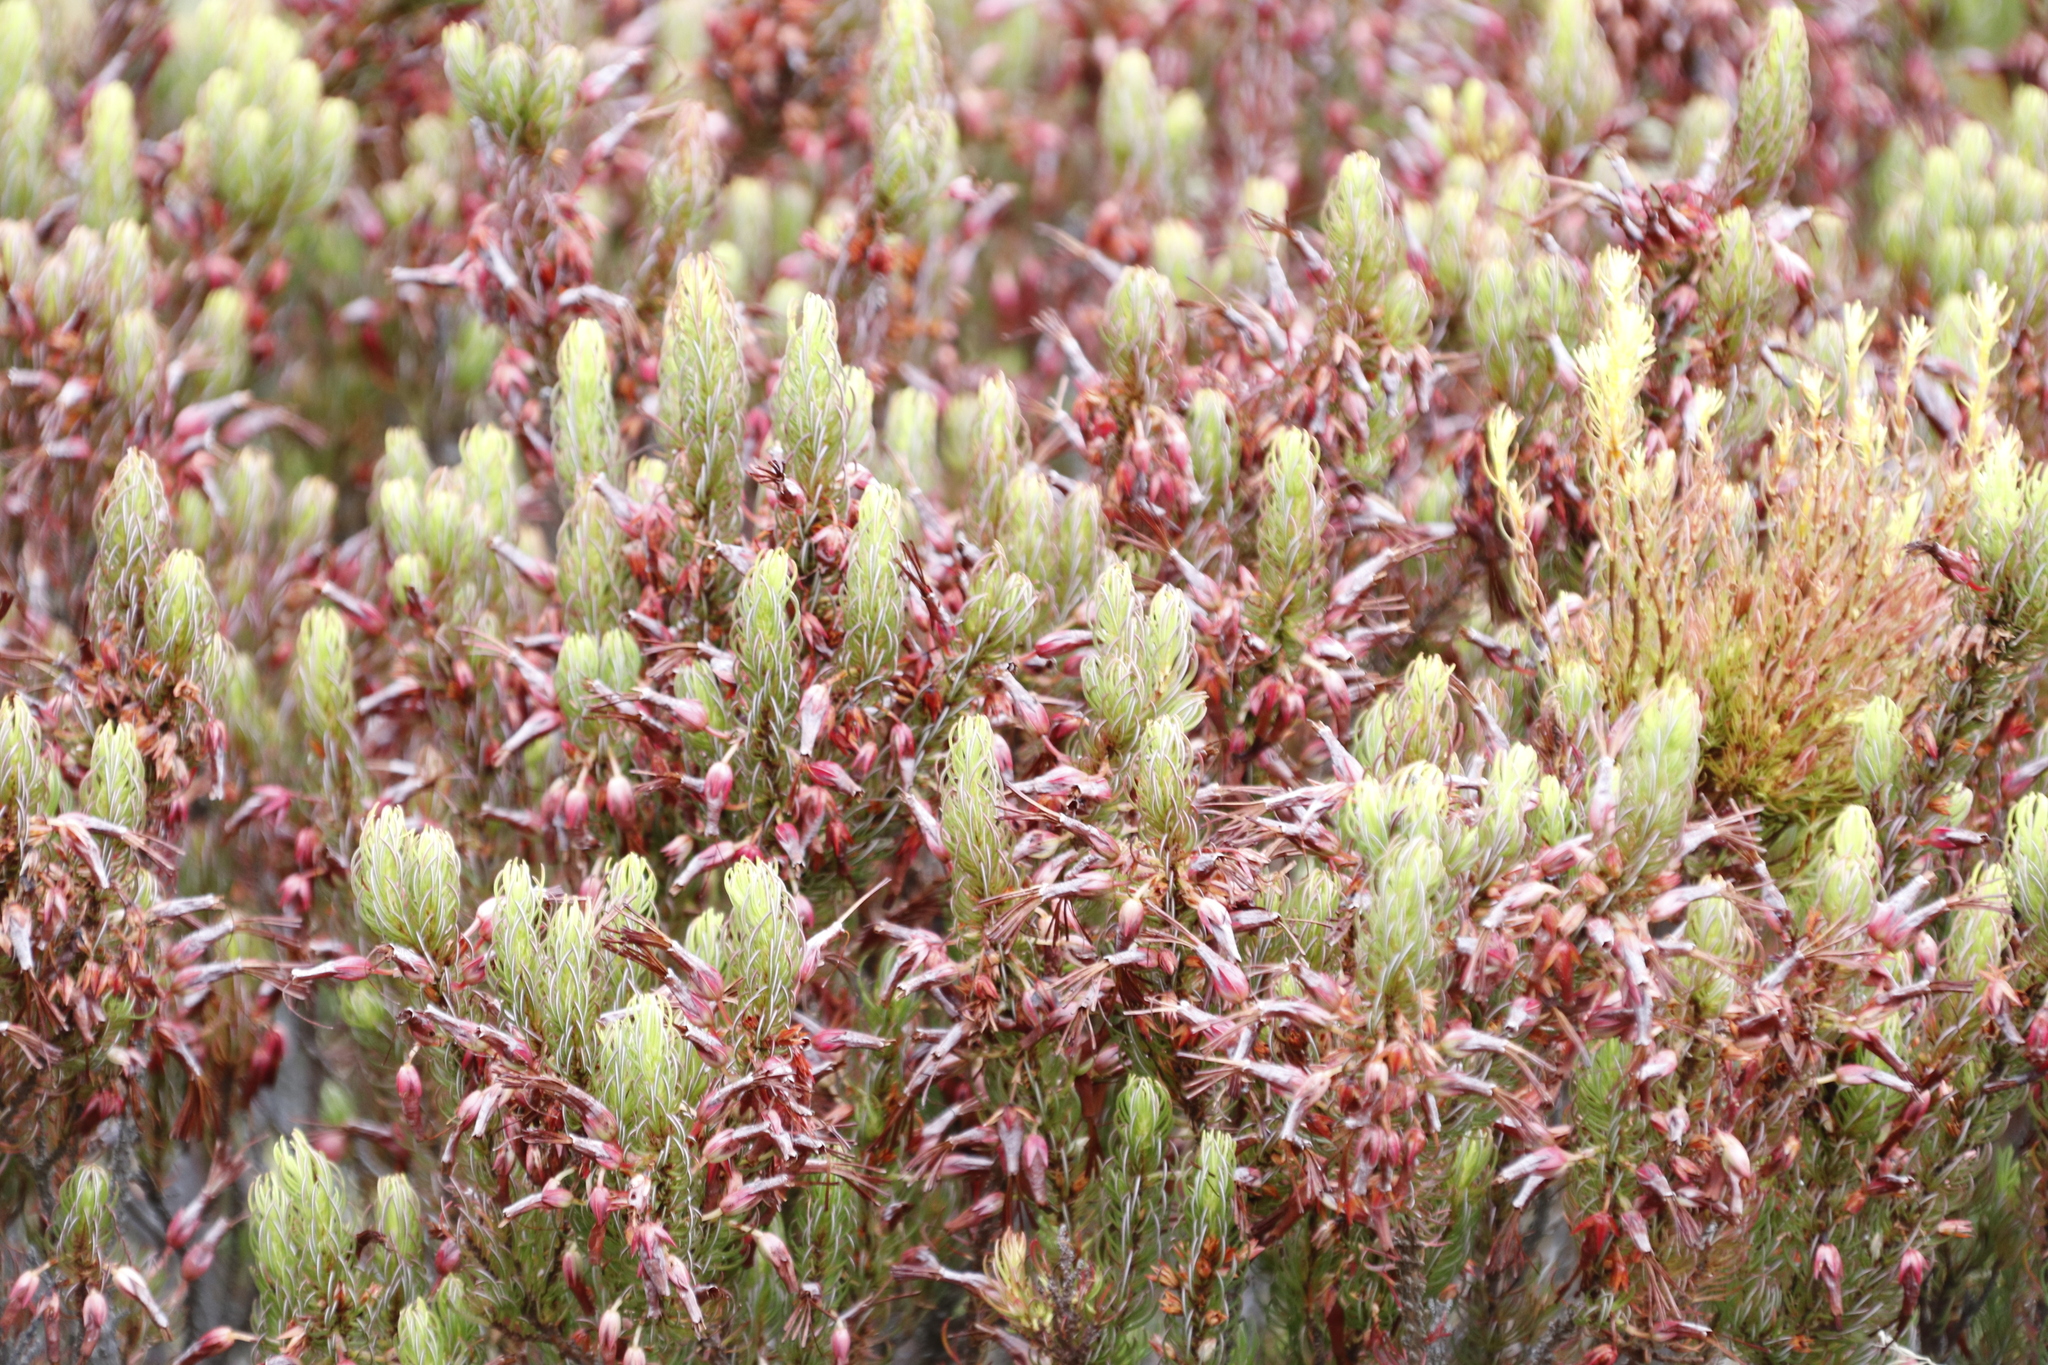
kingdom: Plantae
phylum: Tracheophyta
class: Magnoliopsida
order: Ericales
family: Ericaceae
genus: Erica
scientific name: Erica plukenetii
